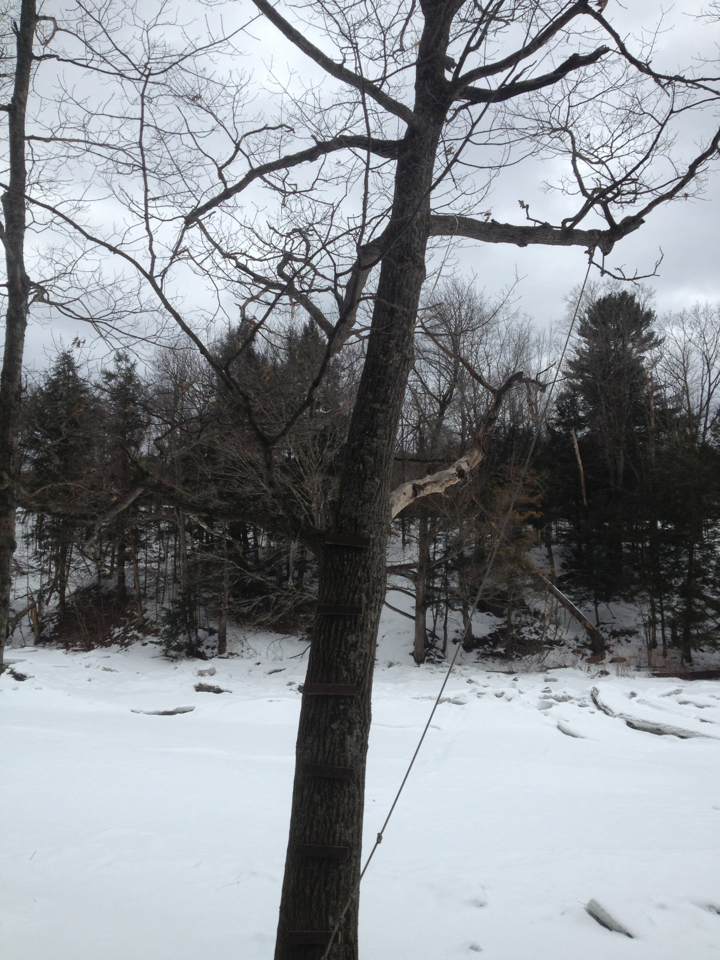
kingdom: Plantae
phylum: Tracheophyta
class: Magnoliopsida
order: Fagales
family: Fagaceae
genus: Quercus
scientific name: Quercus rubra
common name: Red oak
